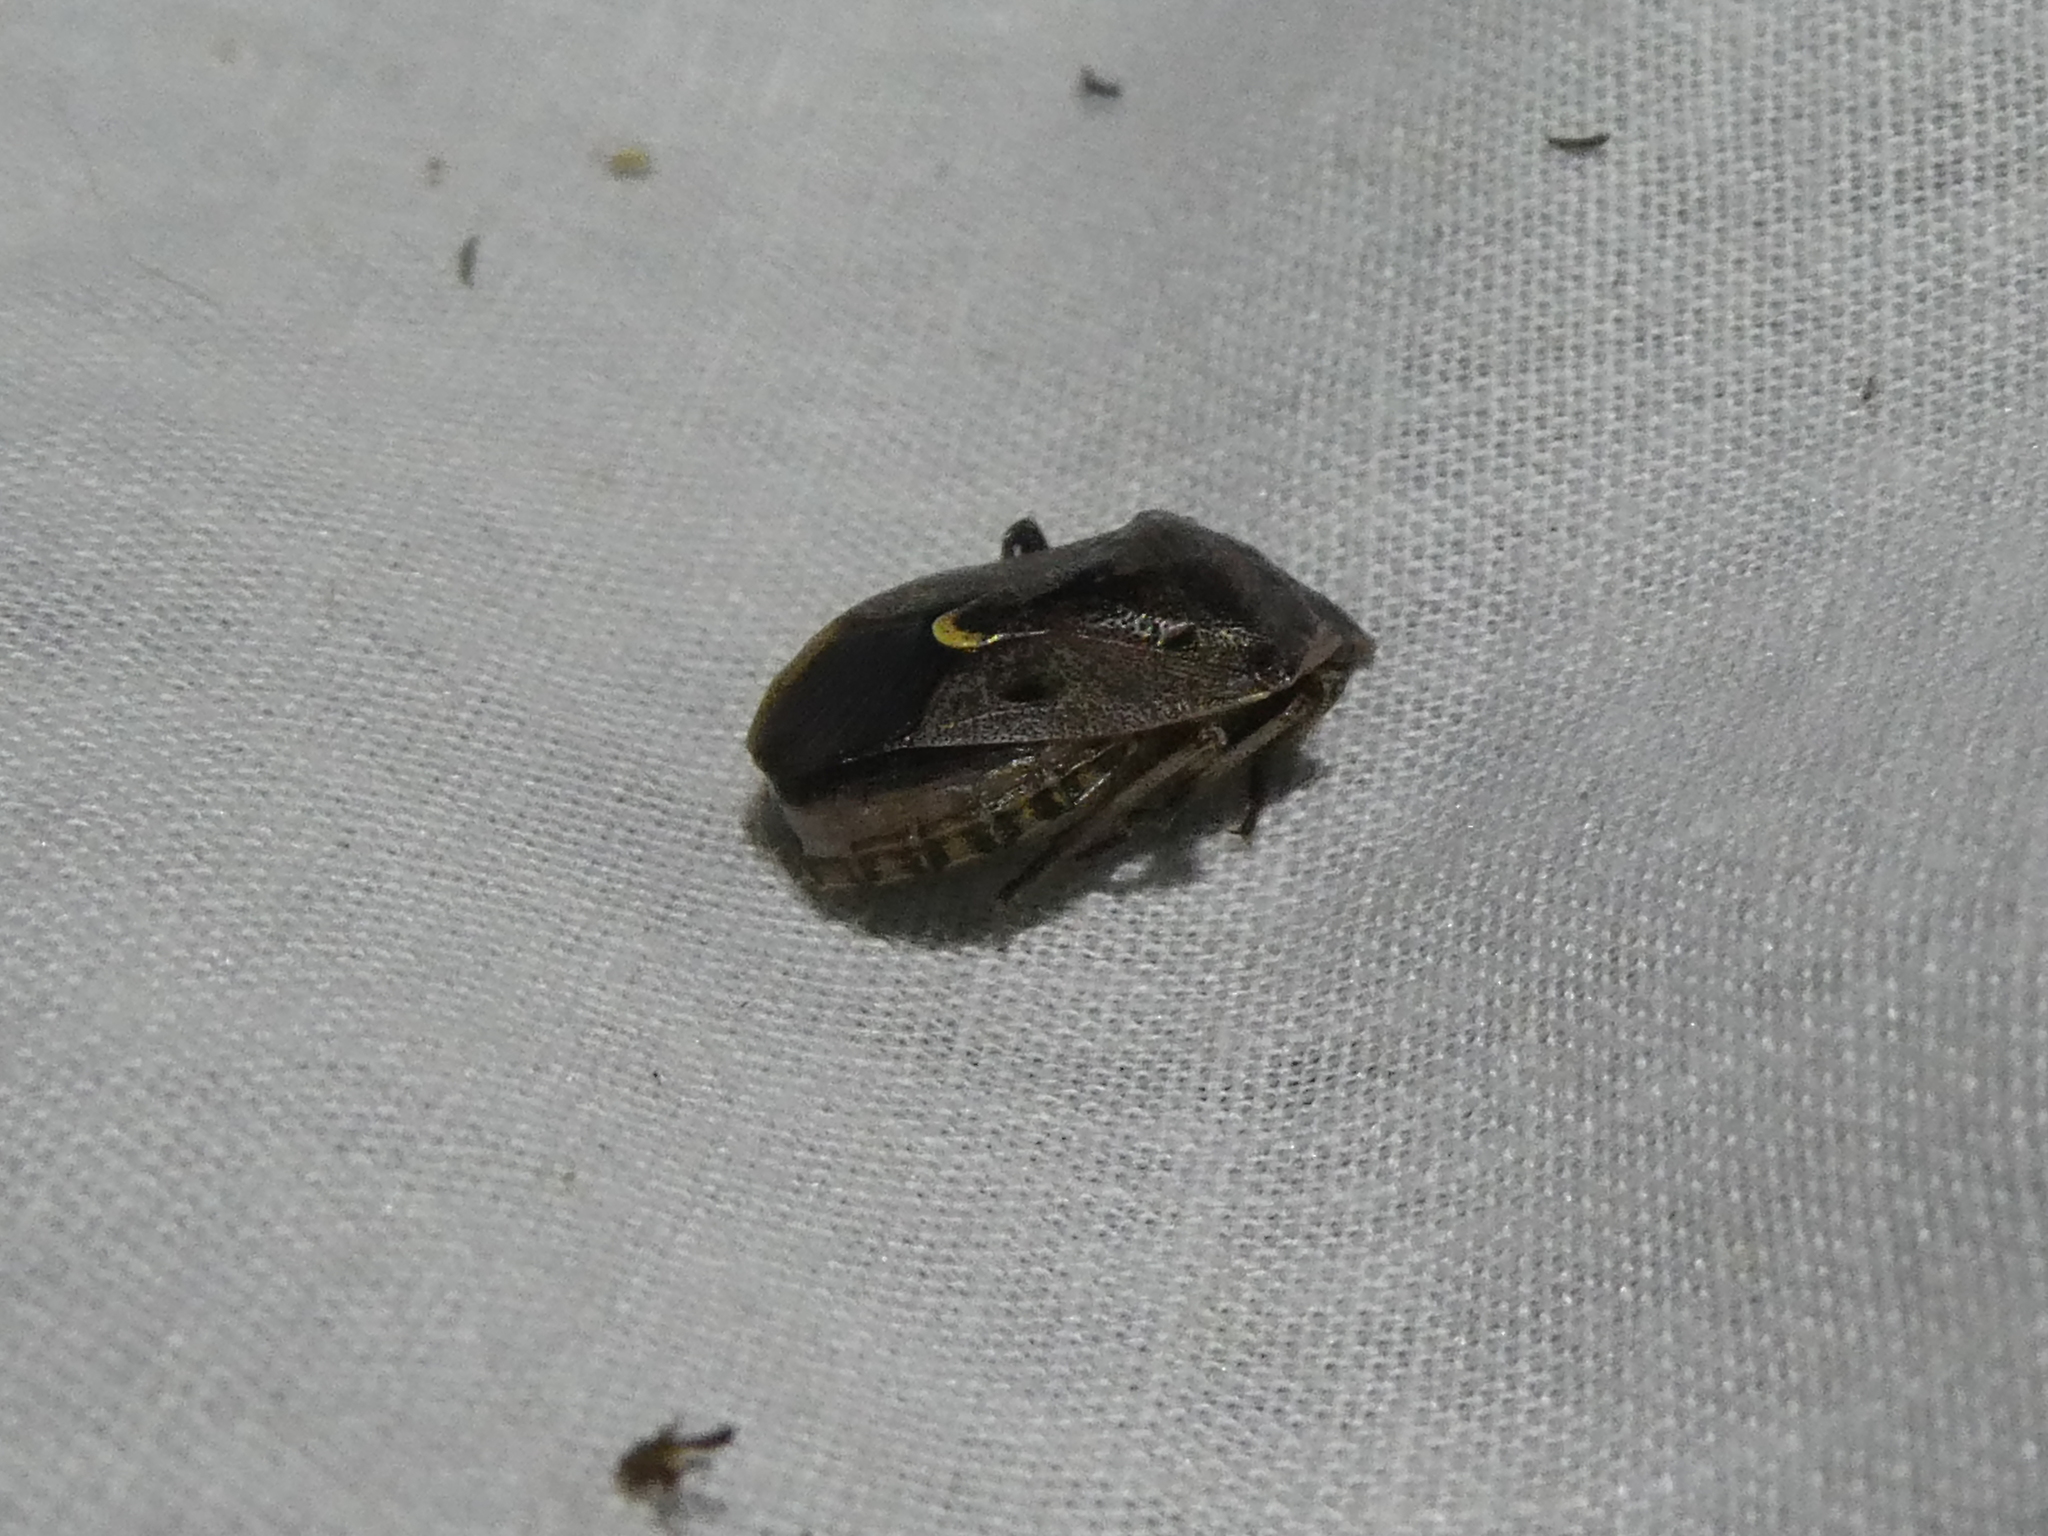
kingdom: Animalia
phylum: Arthropoda
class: Insecta
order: Hemiptera
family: Pentatomidae
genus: Cermatulus
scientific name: Cermatulus nasalis
